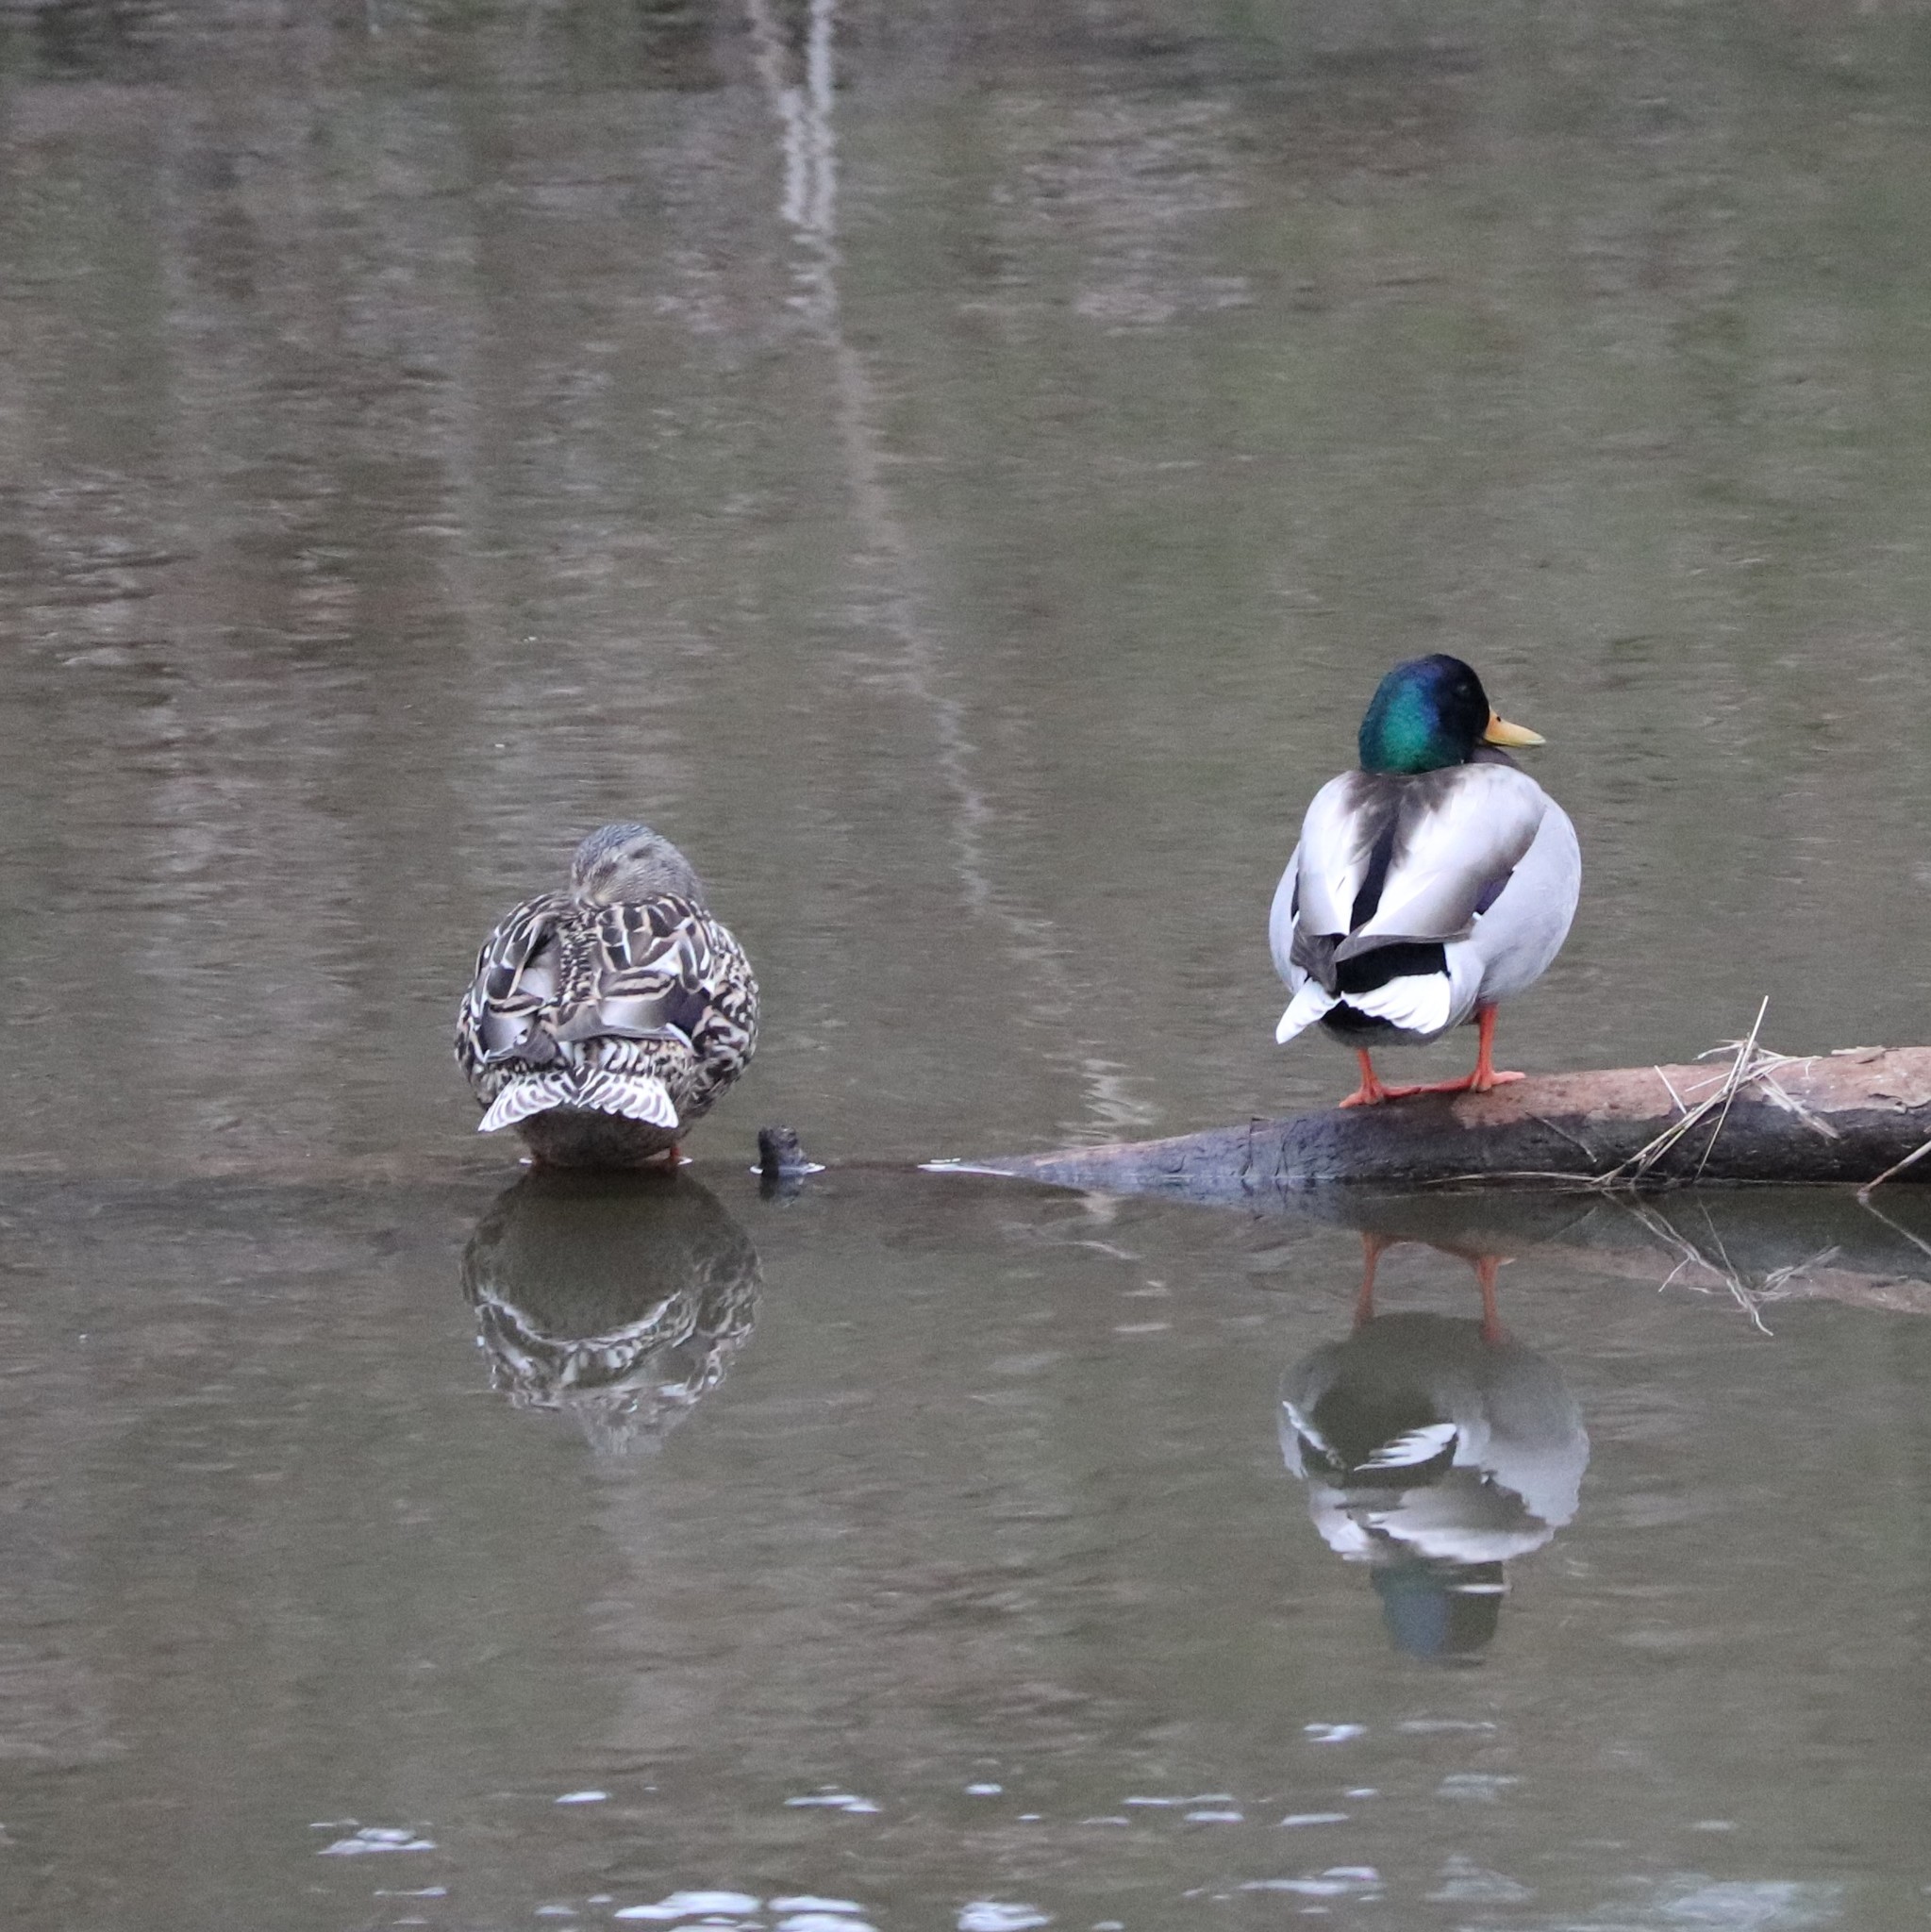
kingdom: Animalia
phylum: Chordata
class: Aves
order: Anseriformes
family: Anatidae
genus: Anas
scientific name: Anas platyrhynchos
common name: Mallard
